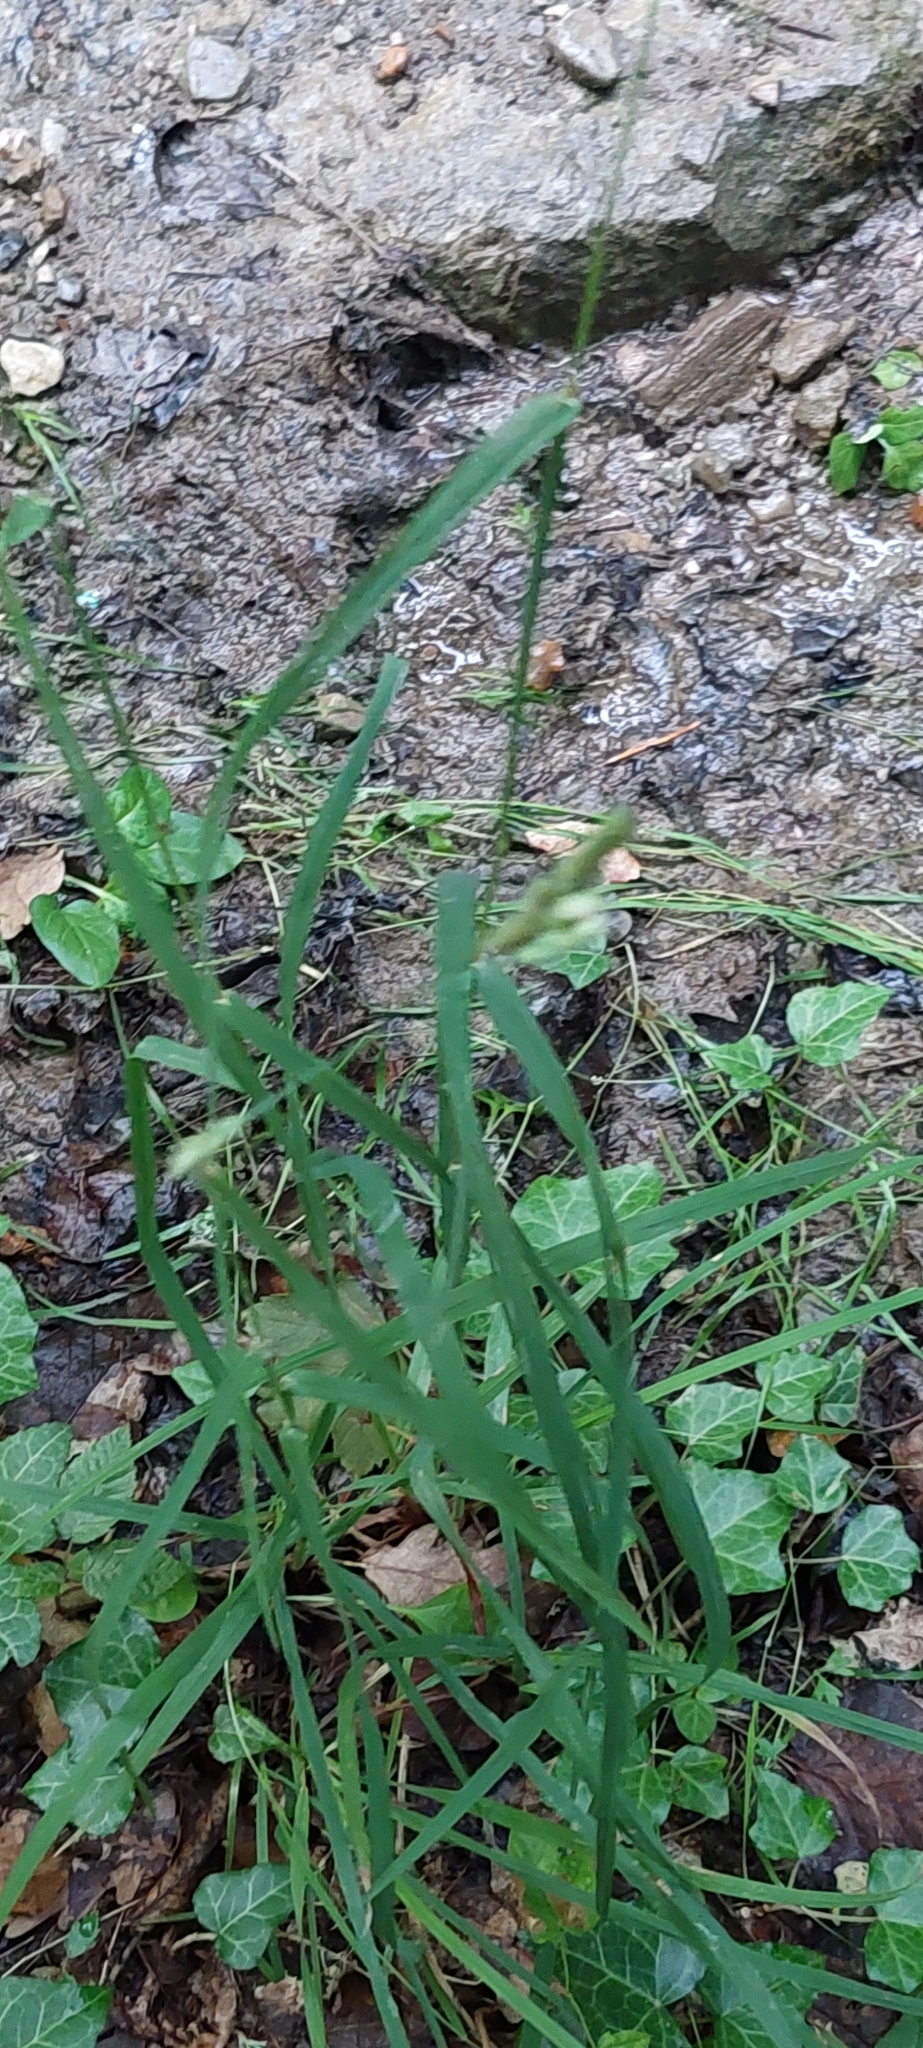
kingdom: Plantae
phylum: Tracheophyta
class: Liliopsida
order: Poales
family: Poaceae
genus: Dactylis
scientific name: Dactylis glomerata
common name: Orchardgrass
